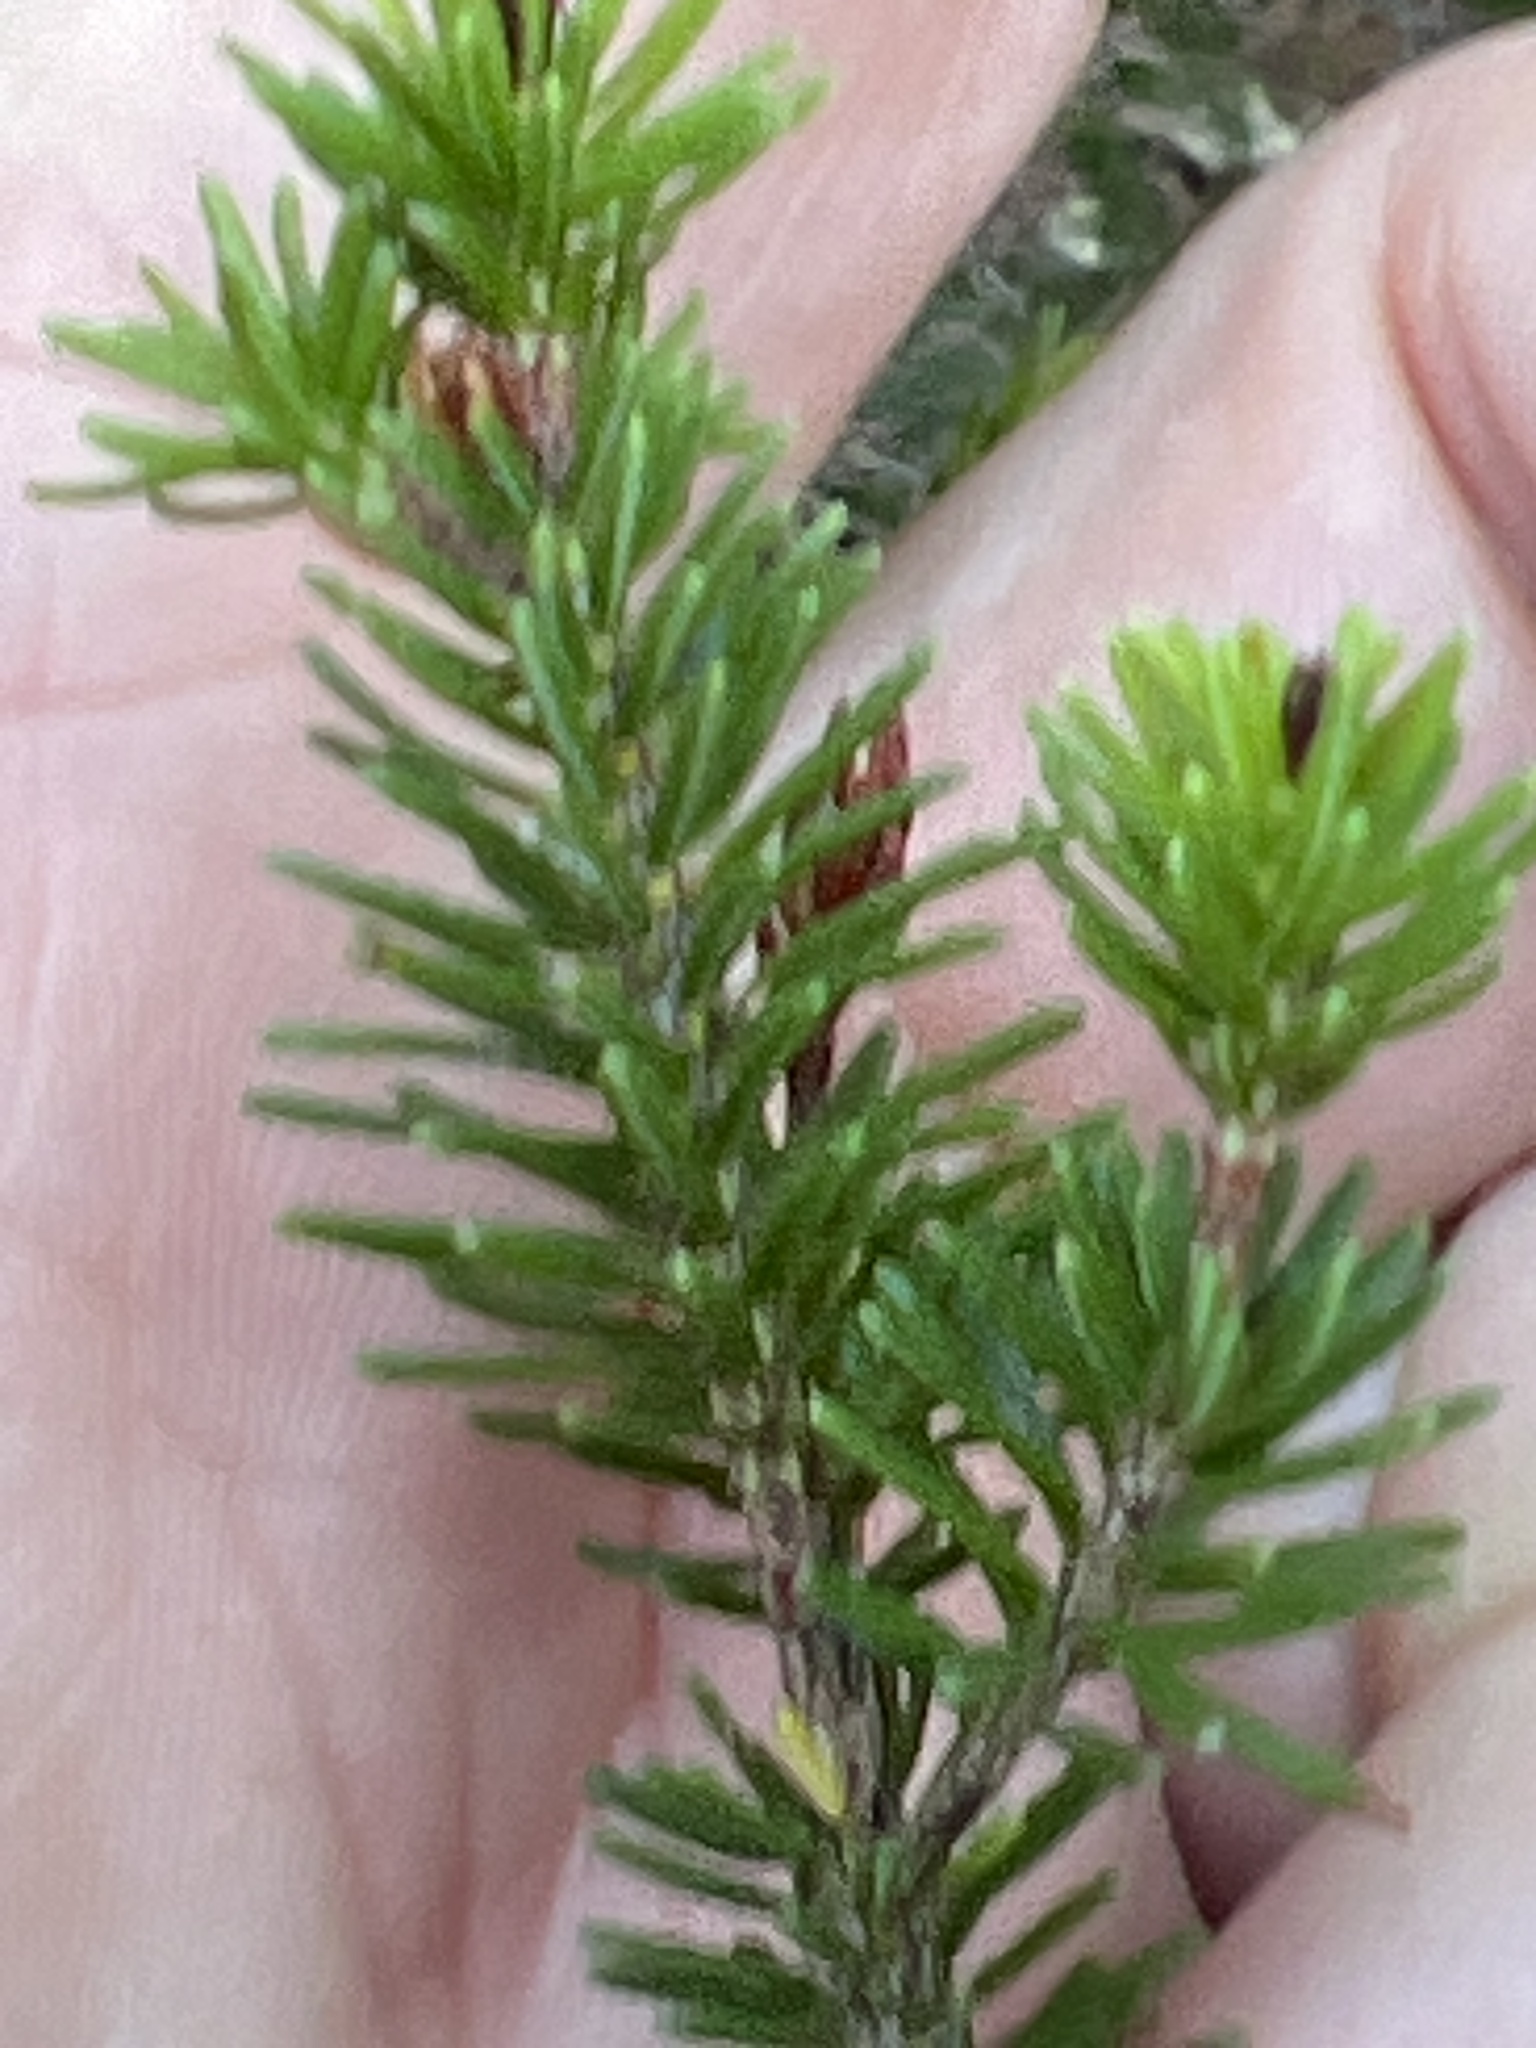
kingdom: Plantae
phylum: Tracheophyta
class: Magnoliopsida
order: Ericales
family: Ericaceae
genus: Erica
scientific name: Erica multiflora
